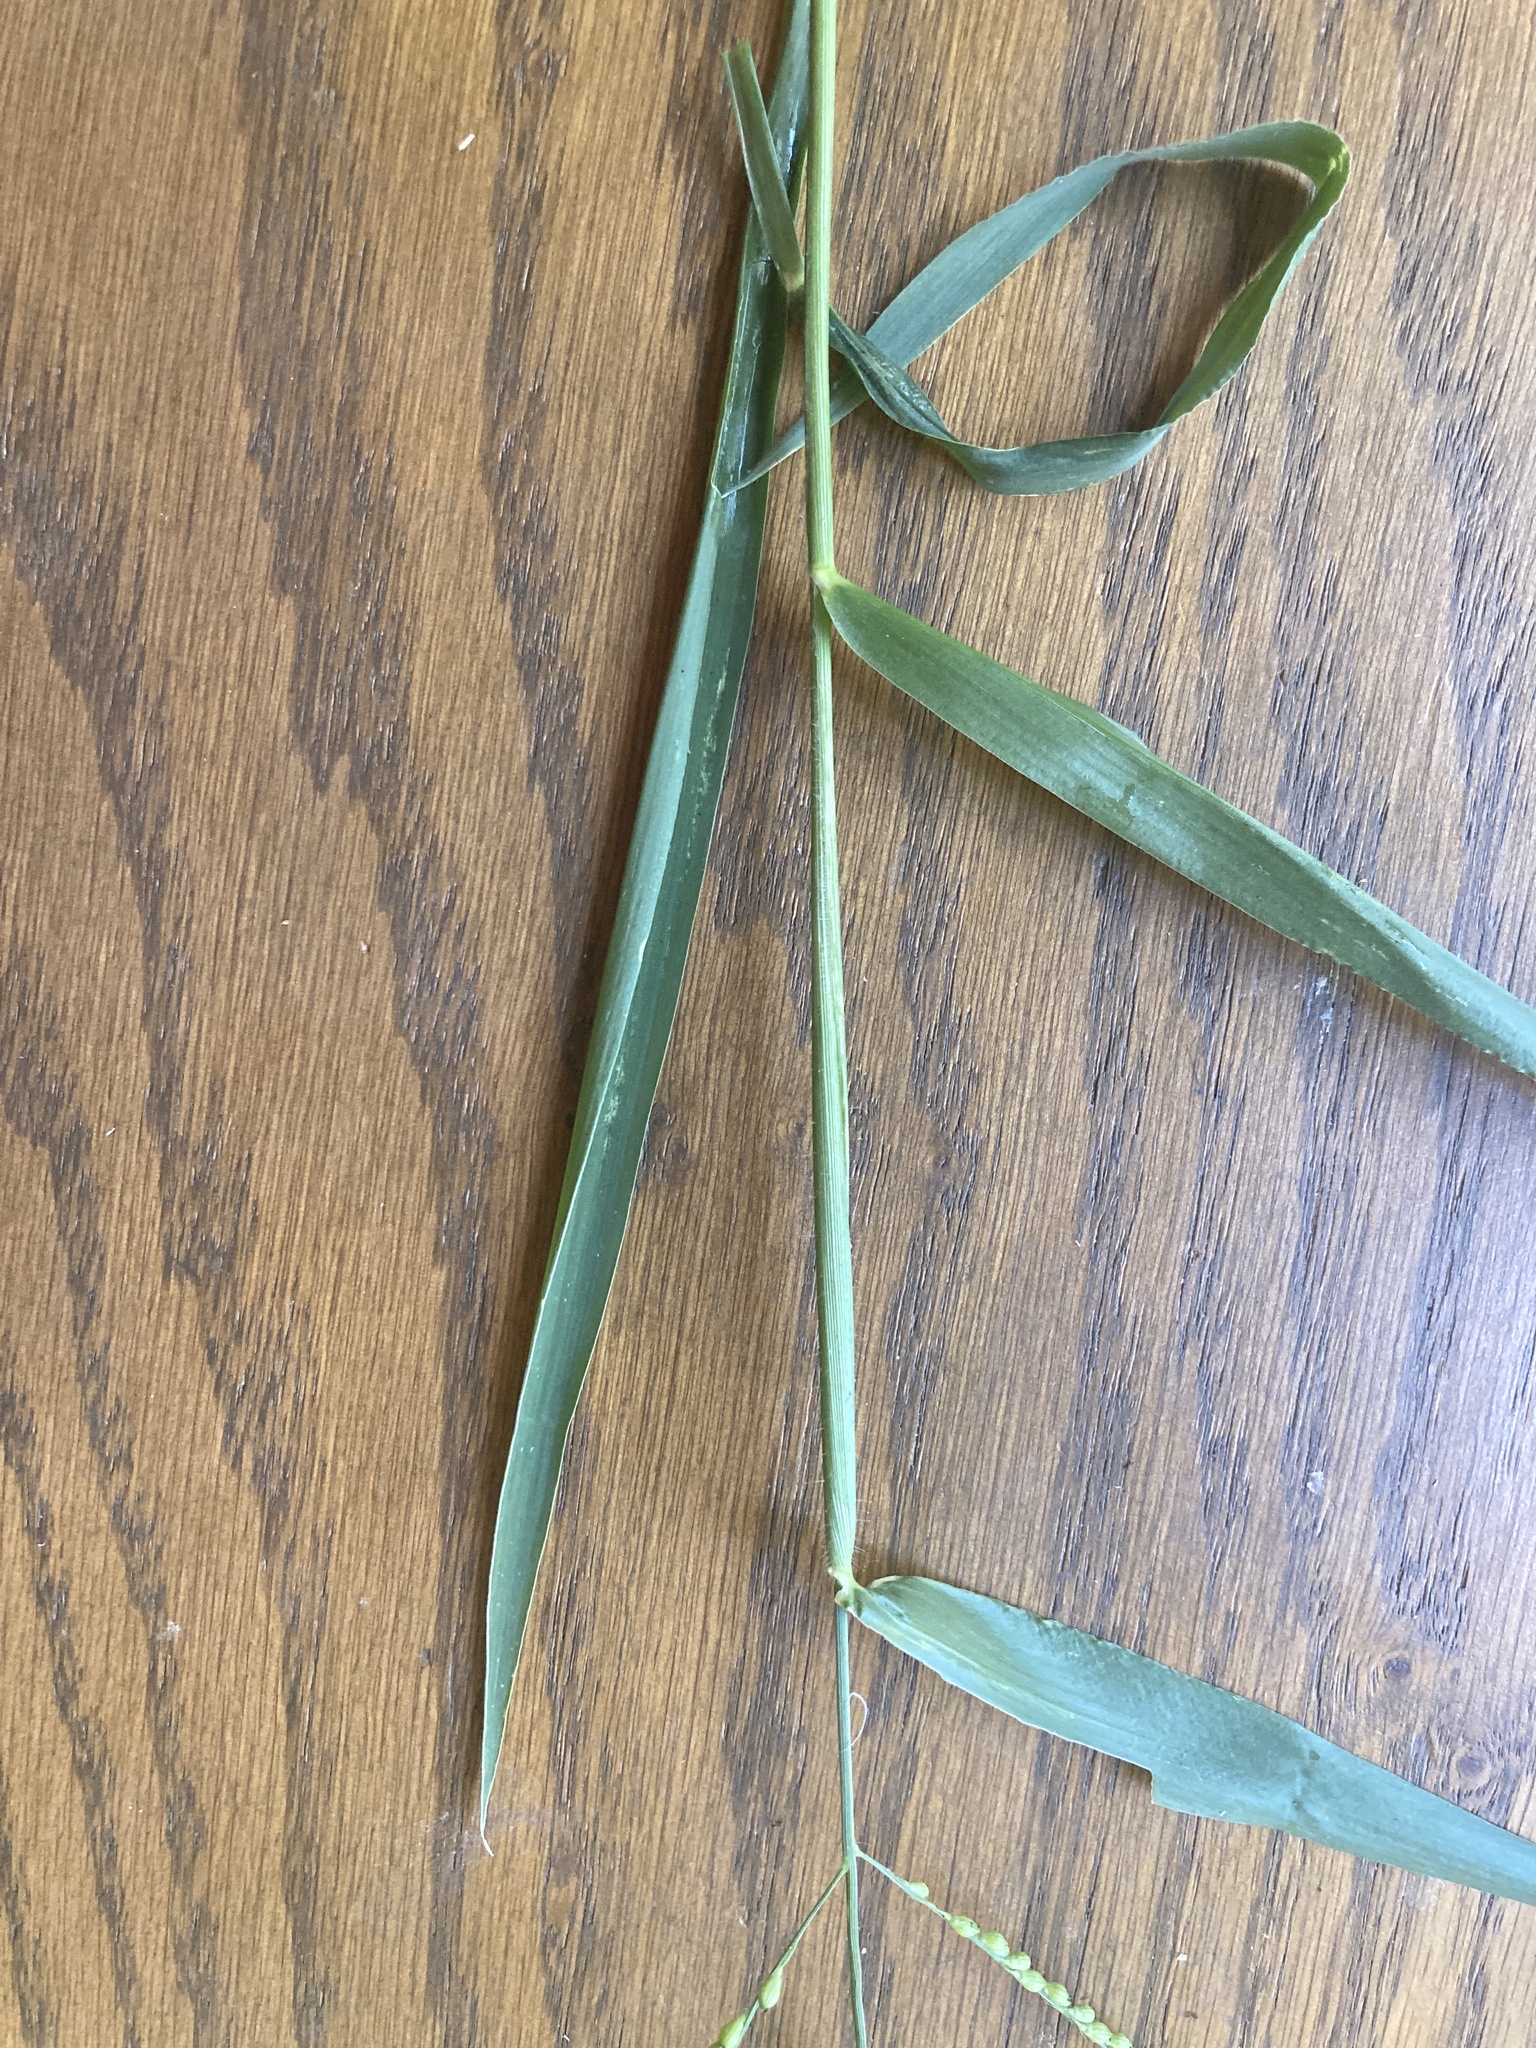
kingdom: Plantae
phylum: Tracheophyta
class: Liliopsida
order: Poales
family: Poaceae
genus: Urochloa
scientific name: Urochloa fusca
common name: Browntop signal grass
